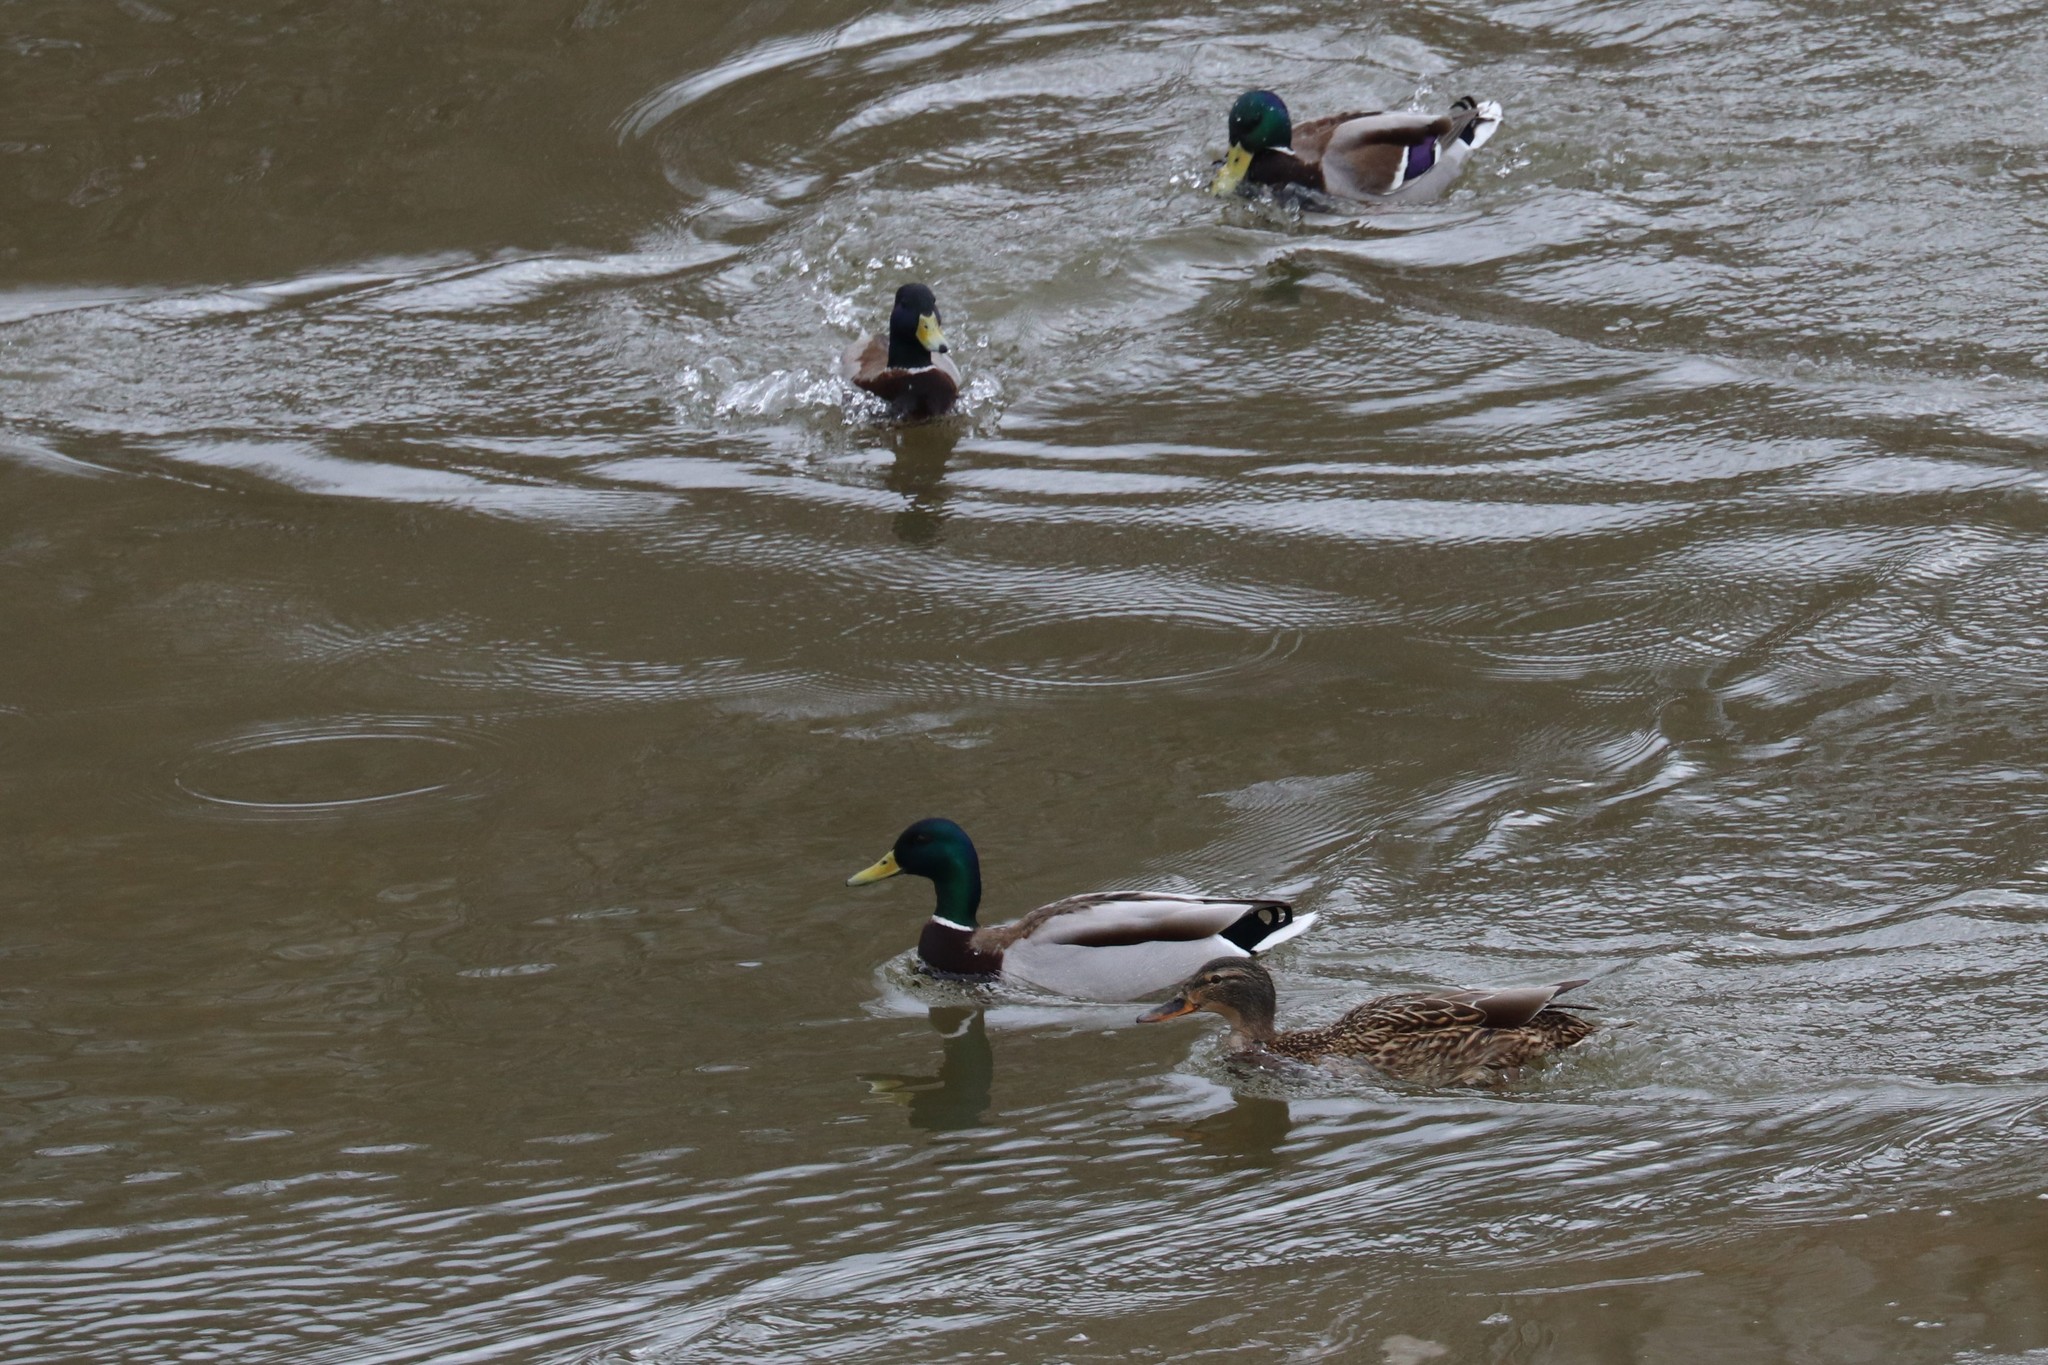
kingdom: Animalia
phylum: Chordata
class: Aves
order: Anseriformes
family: Anatidae
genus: Anas
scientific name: Anas platyrhynchos
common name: Mallard
